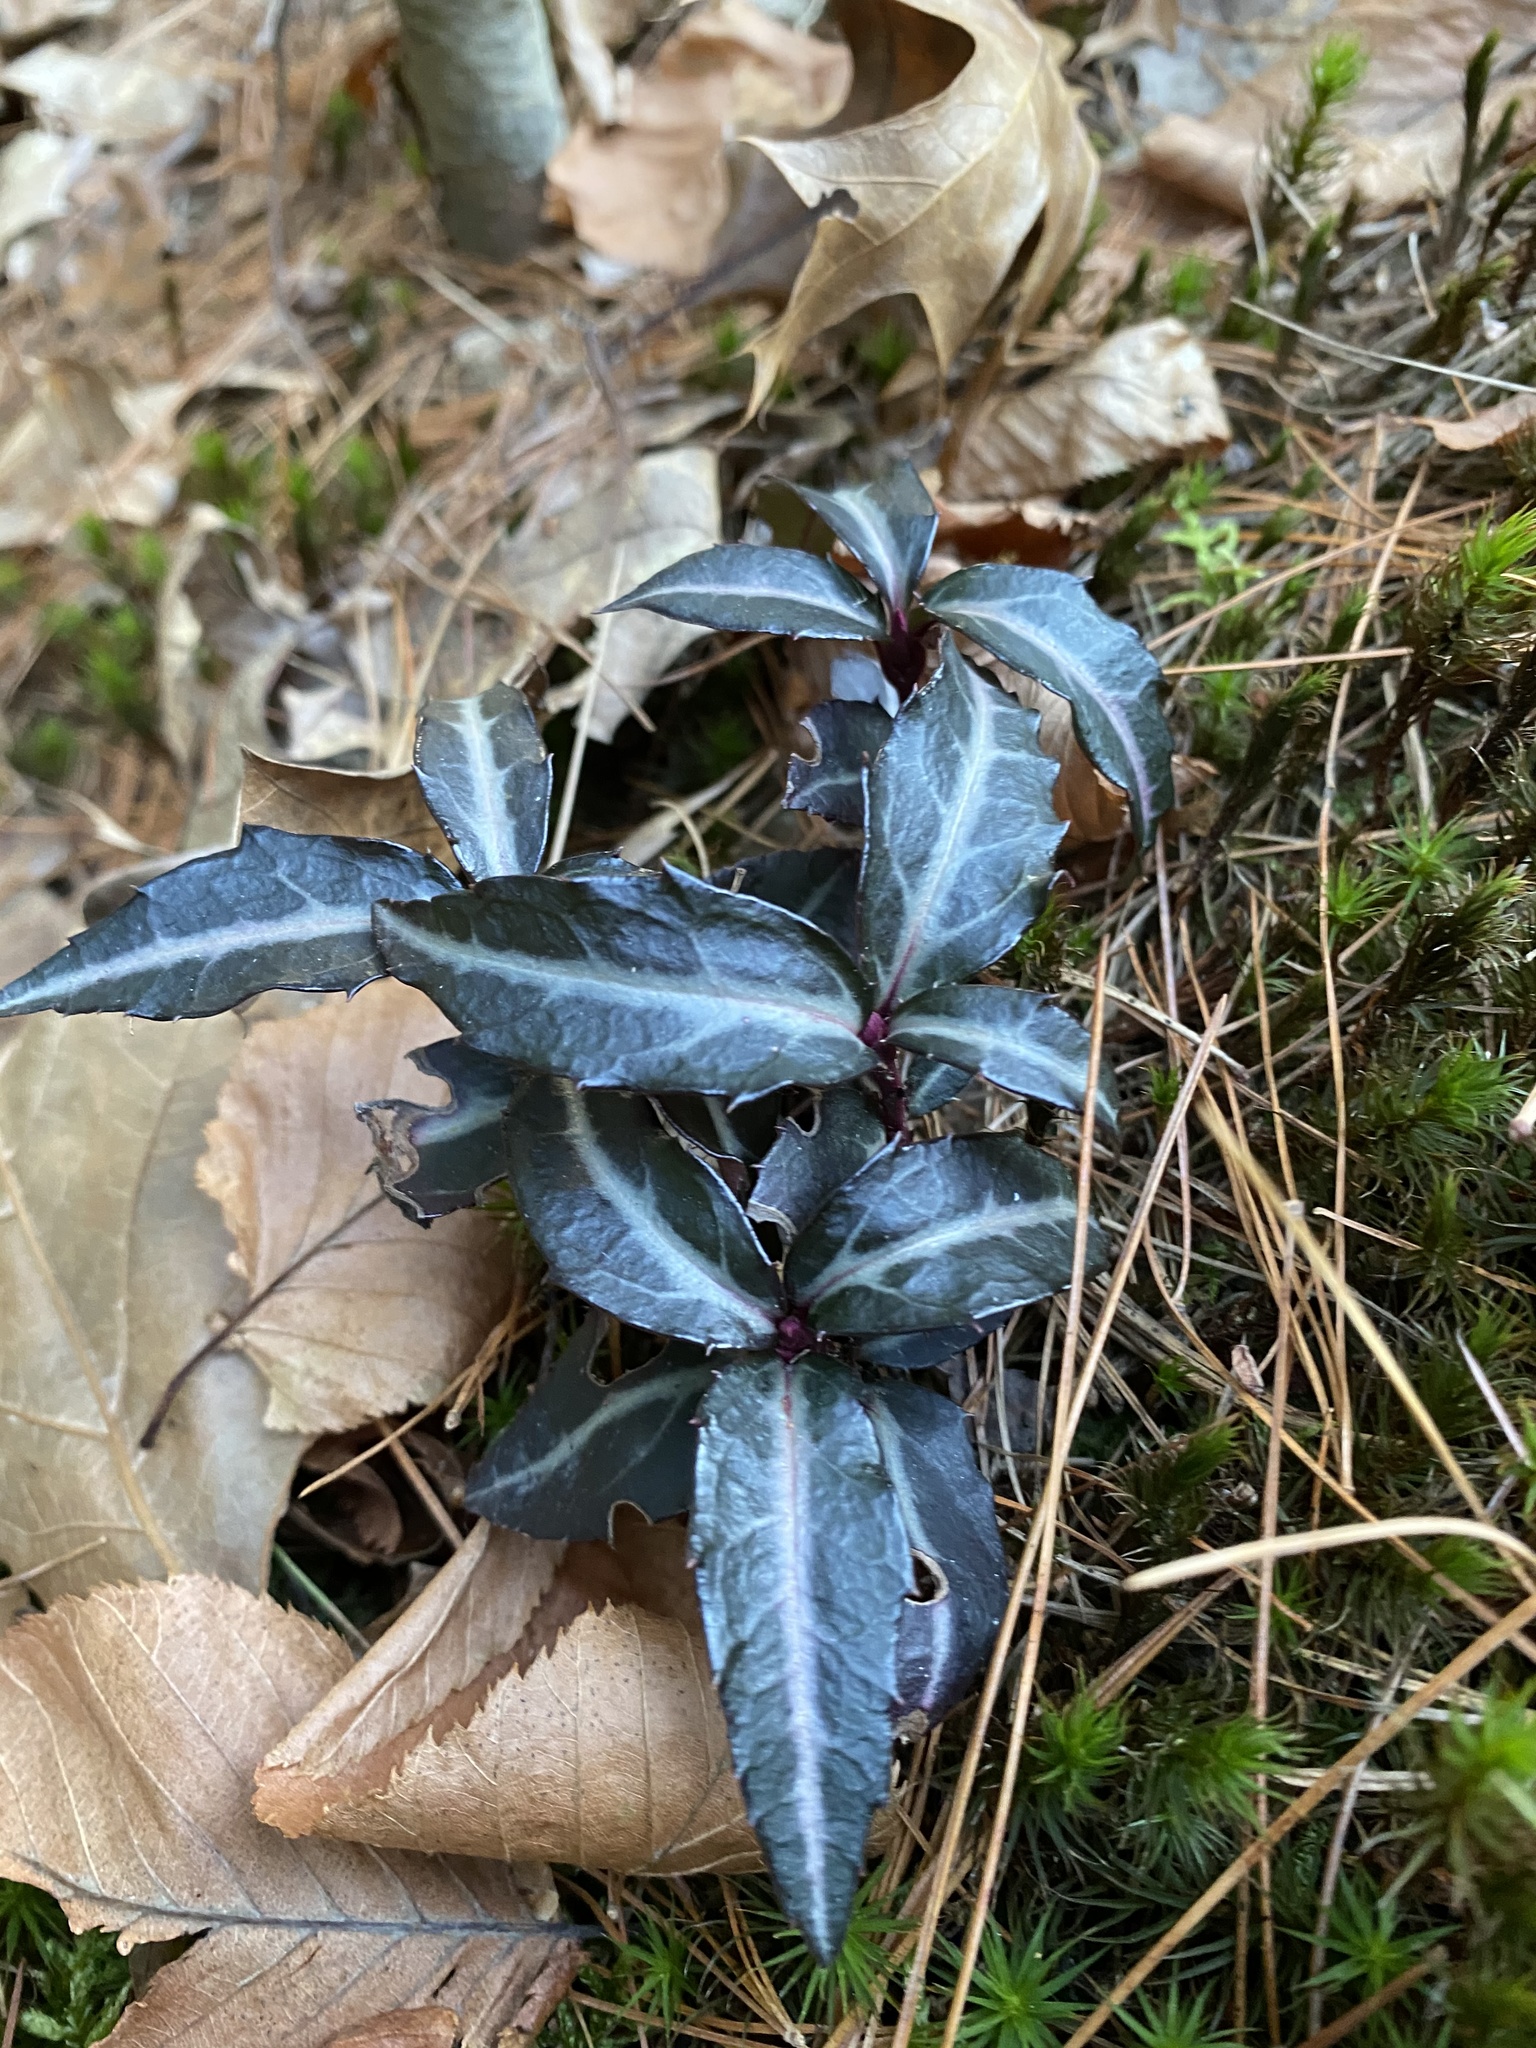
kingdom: Plantae
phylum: Tracheophyta
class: Magnoliopsida
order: Ericales
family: Ericaceae
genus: Chimaphila
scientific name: Chimaphila maculata
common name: Spotted pipsissewa
